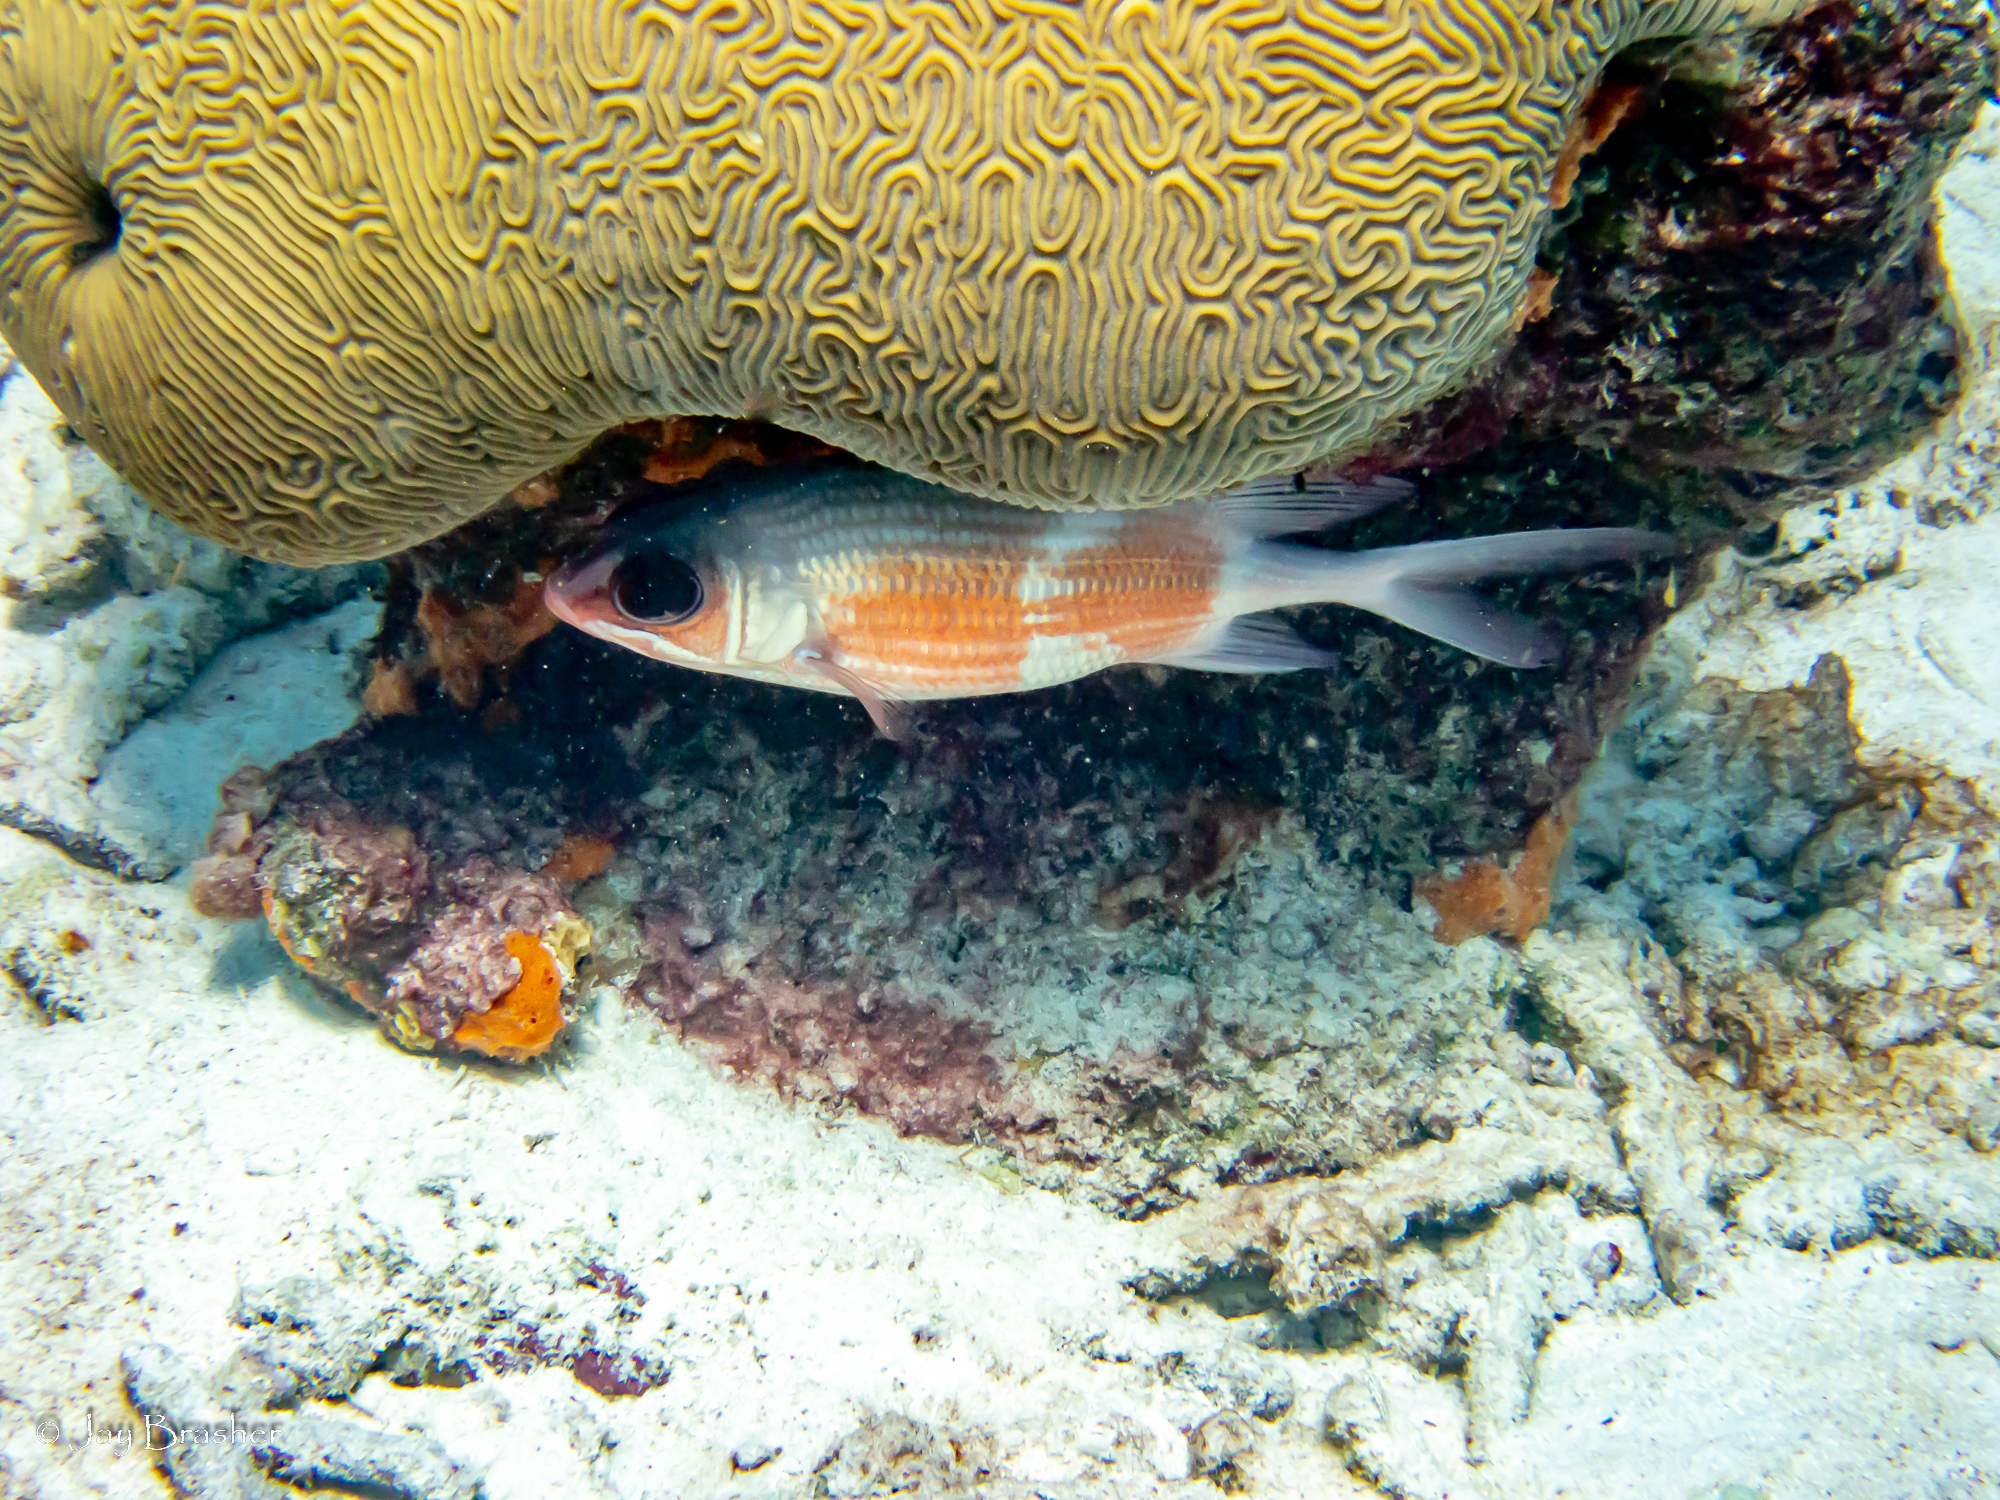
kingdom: Animalia
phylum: Cnidaria
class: Anthozoa
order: Scleractinia
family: Faviidae
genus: Diploria
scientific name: Diploria labyrinthiformis
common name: Grooved brain coral
